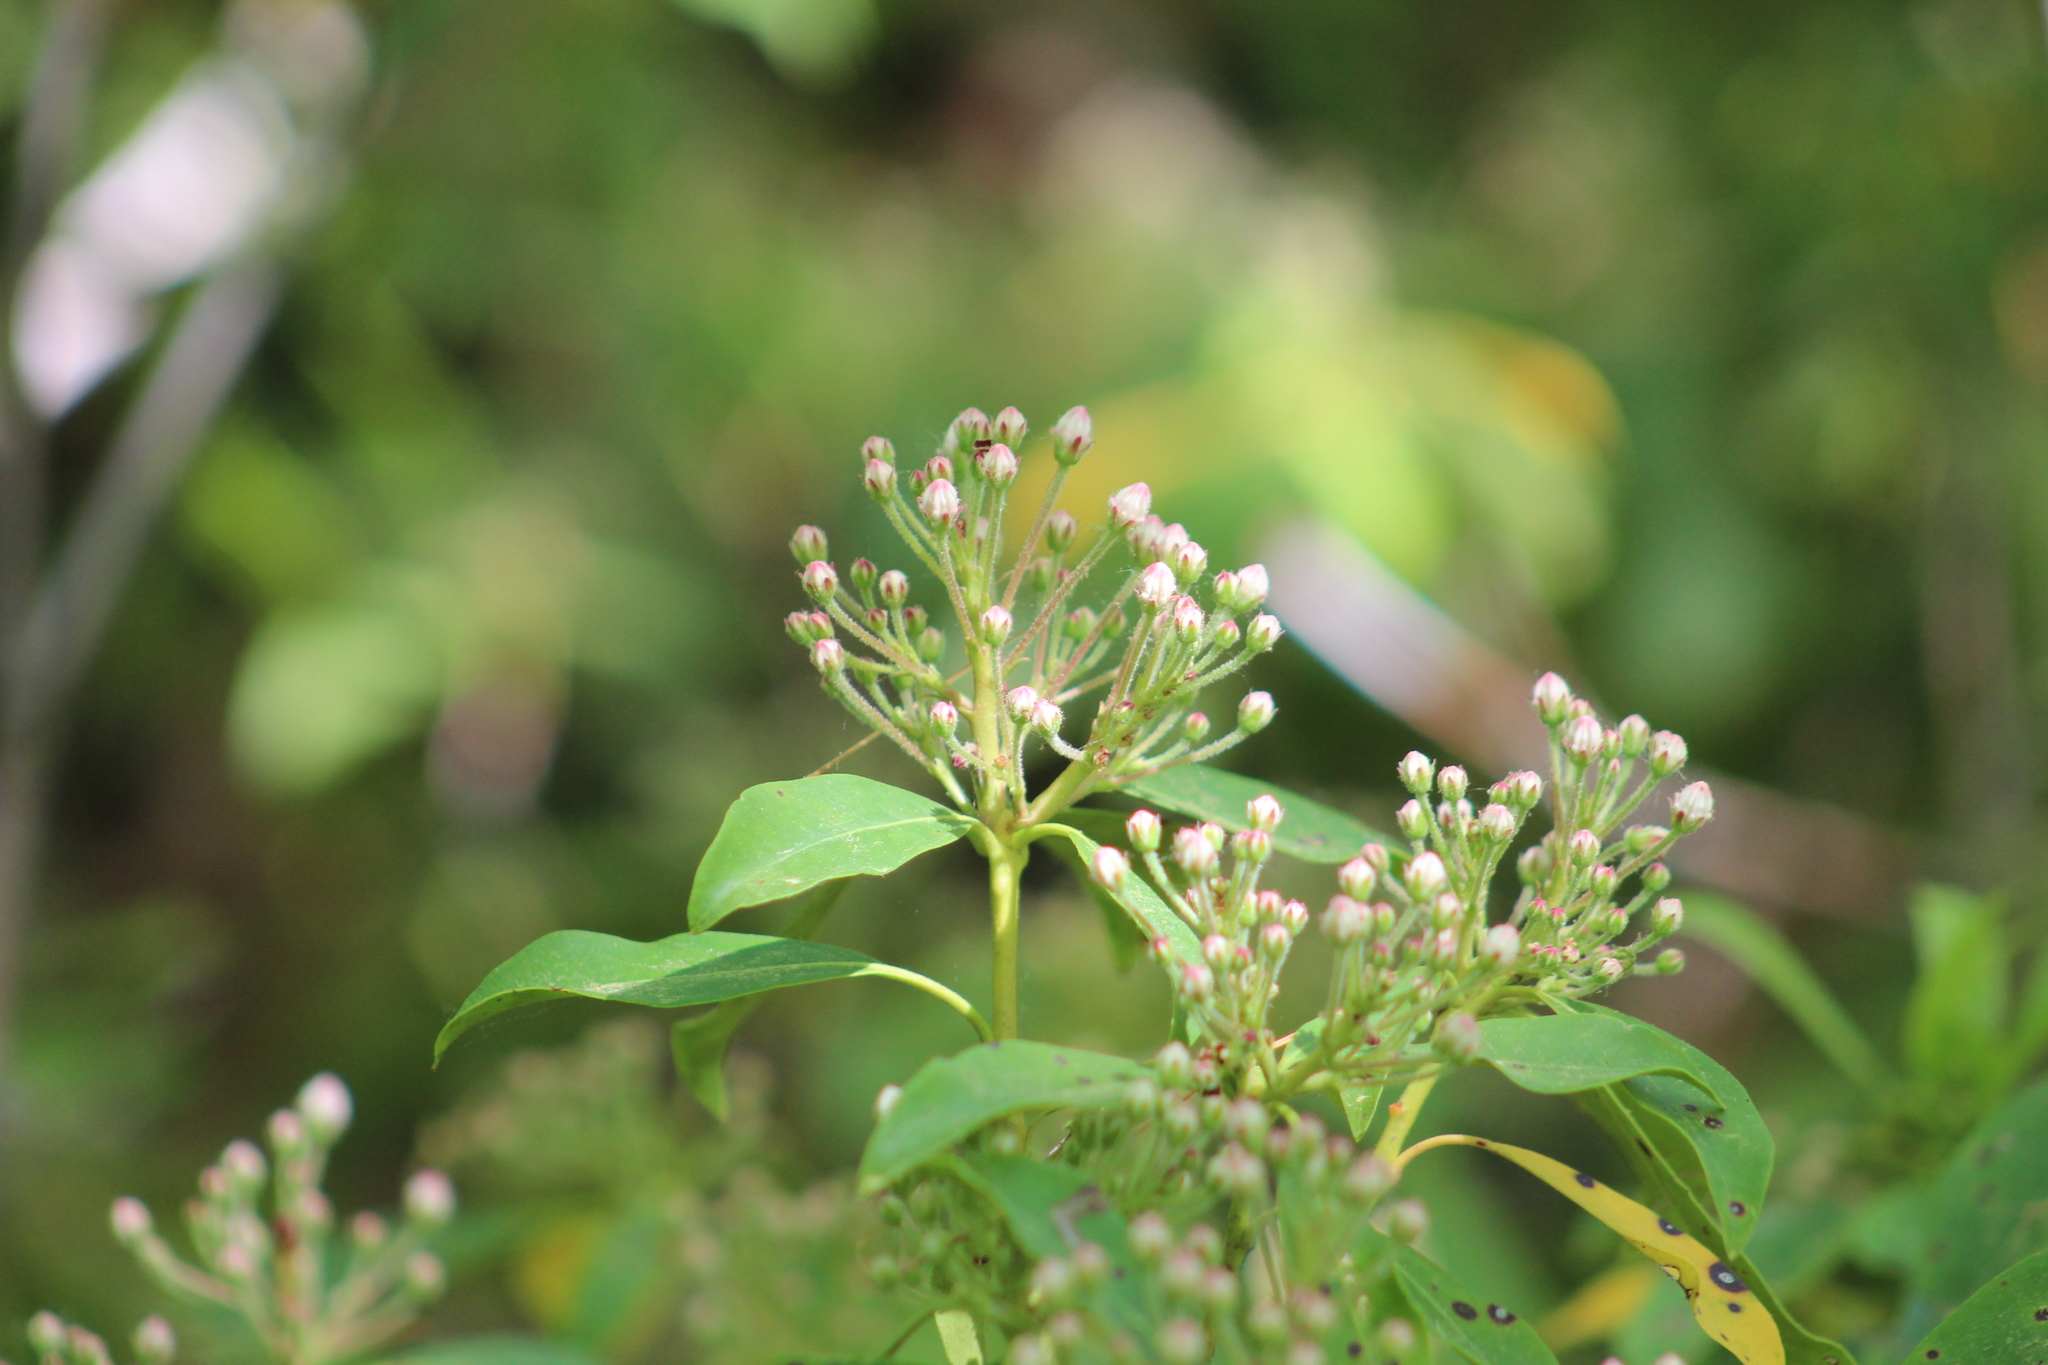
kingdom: Plantae
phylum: Tracheophyta
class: Magnoliopsida
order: Ericales
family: Ericaceae
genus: Kalmia
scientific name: Kalmia latifolia
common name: Mountain-laurel
